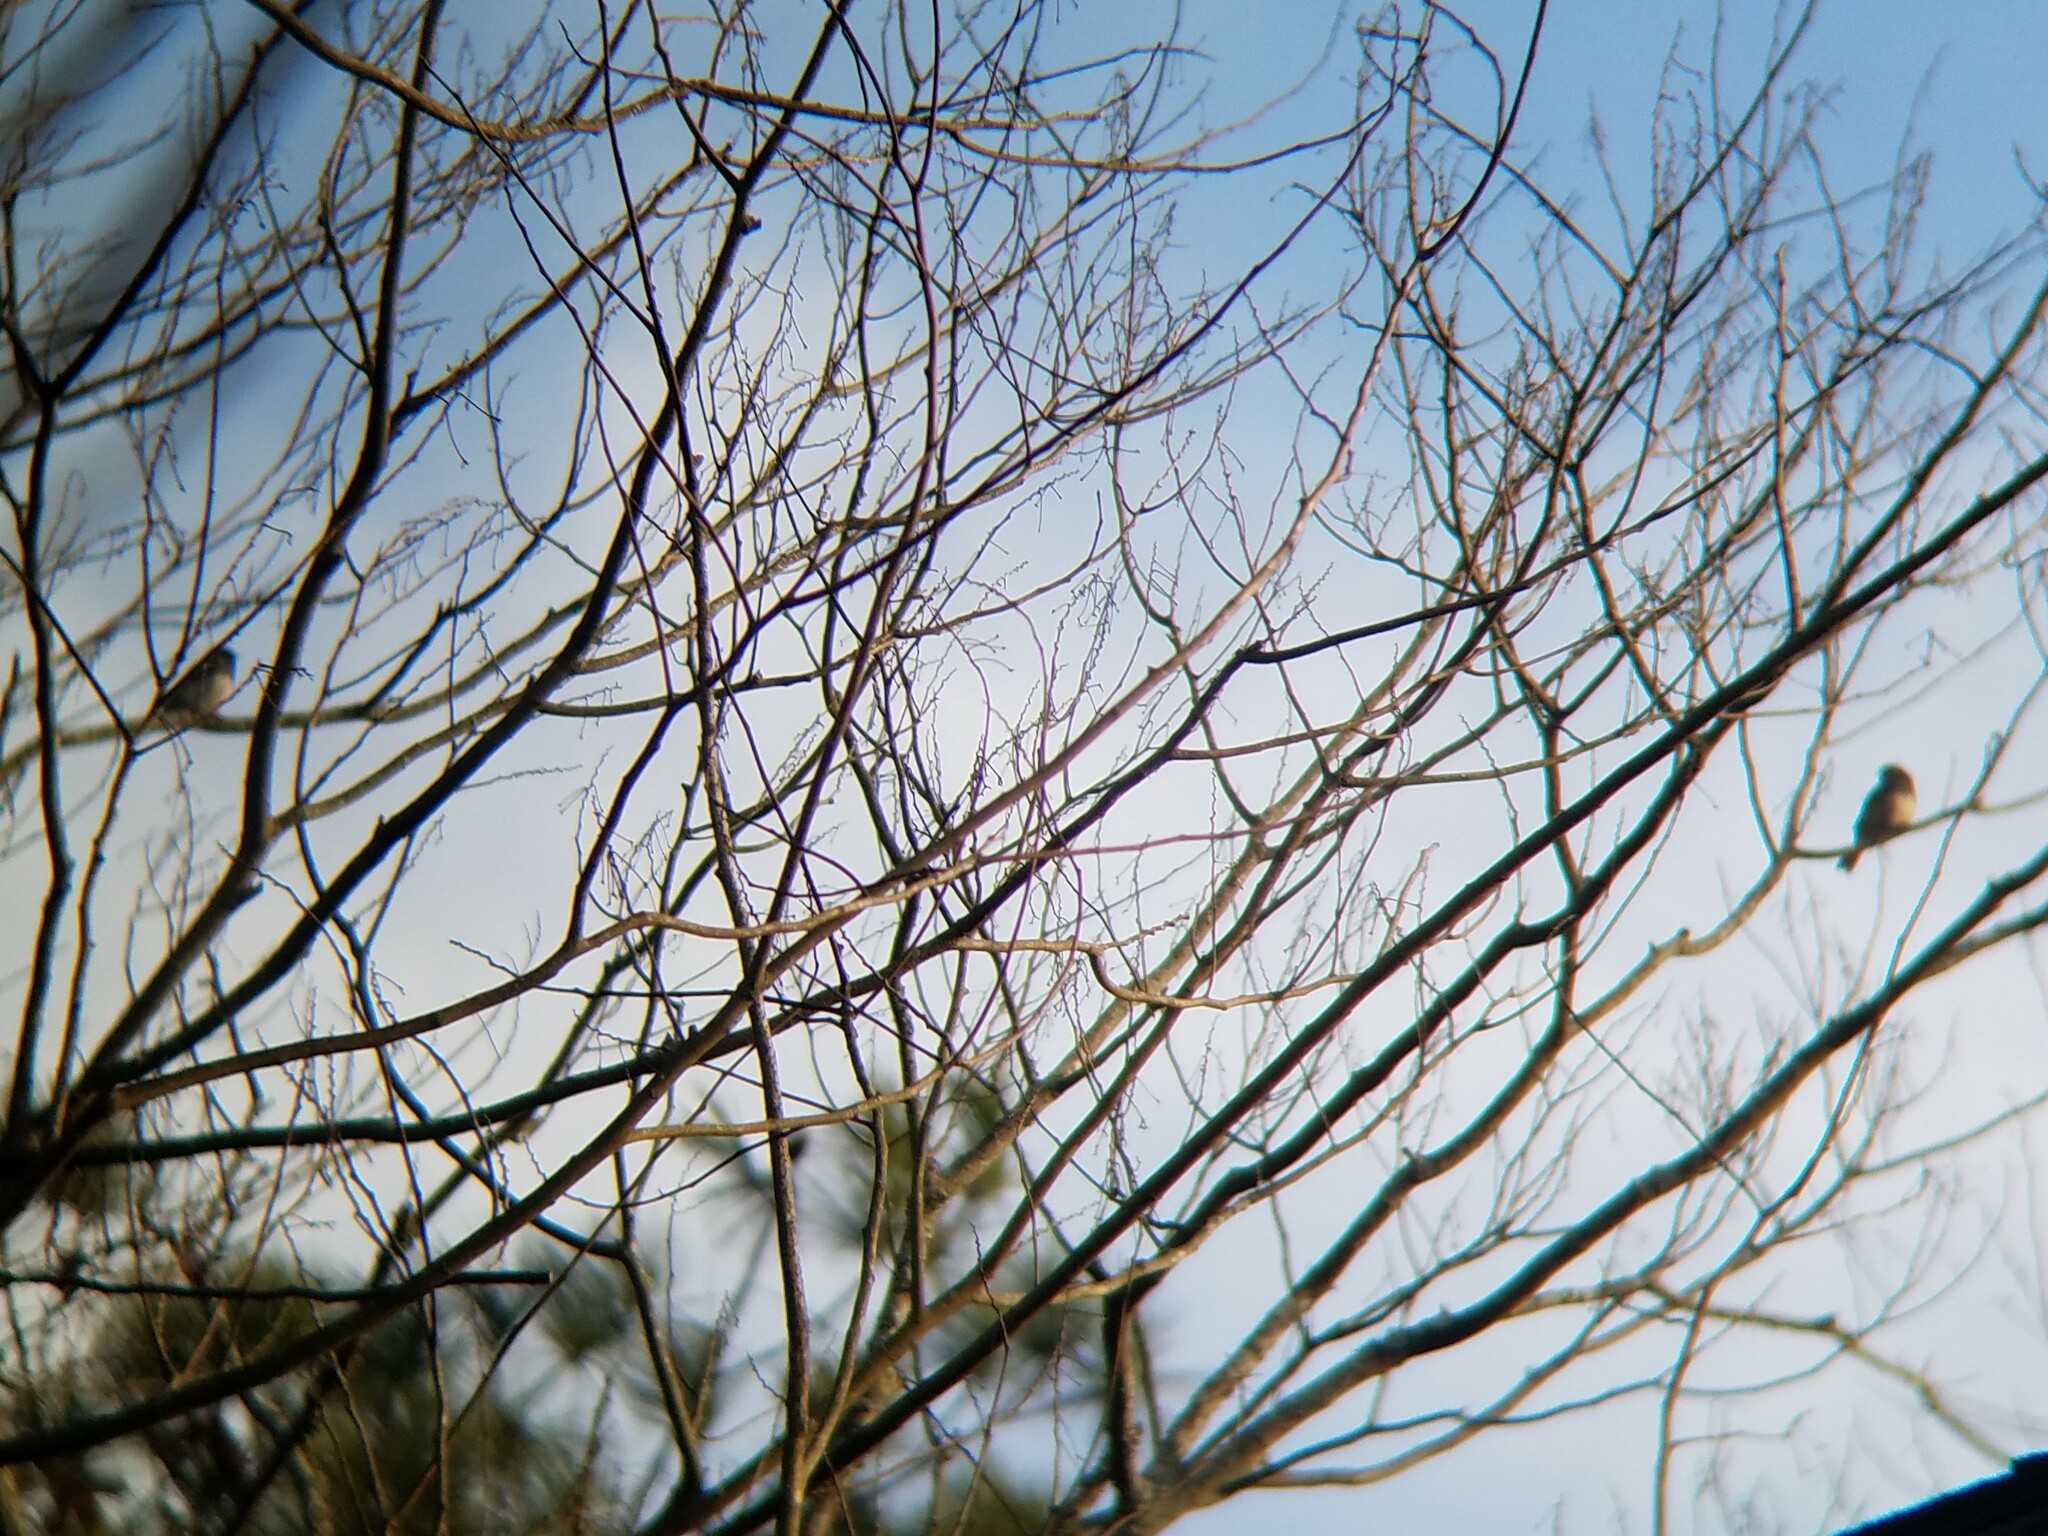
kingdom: Animalia
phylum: Chordata
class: Aves
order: Passeriformes
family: Passerellidae
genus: Junco
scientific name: Junco hyemalis
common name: Dark-eyed junco
